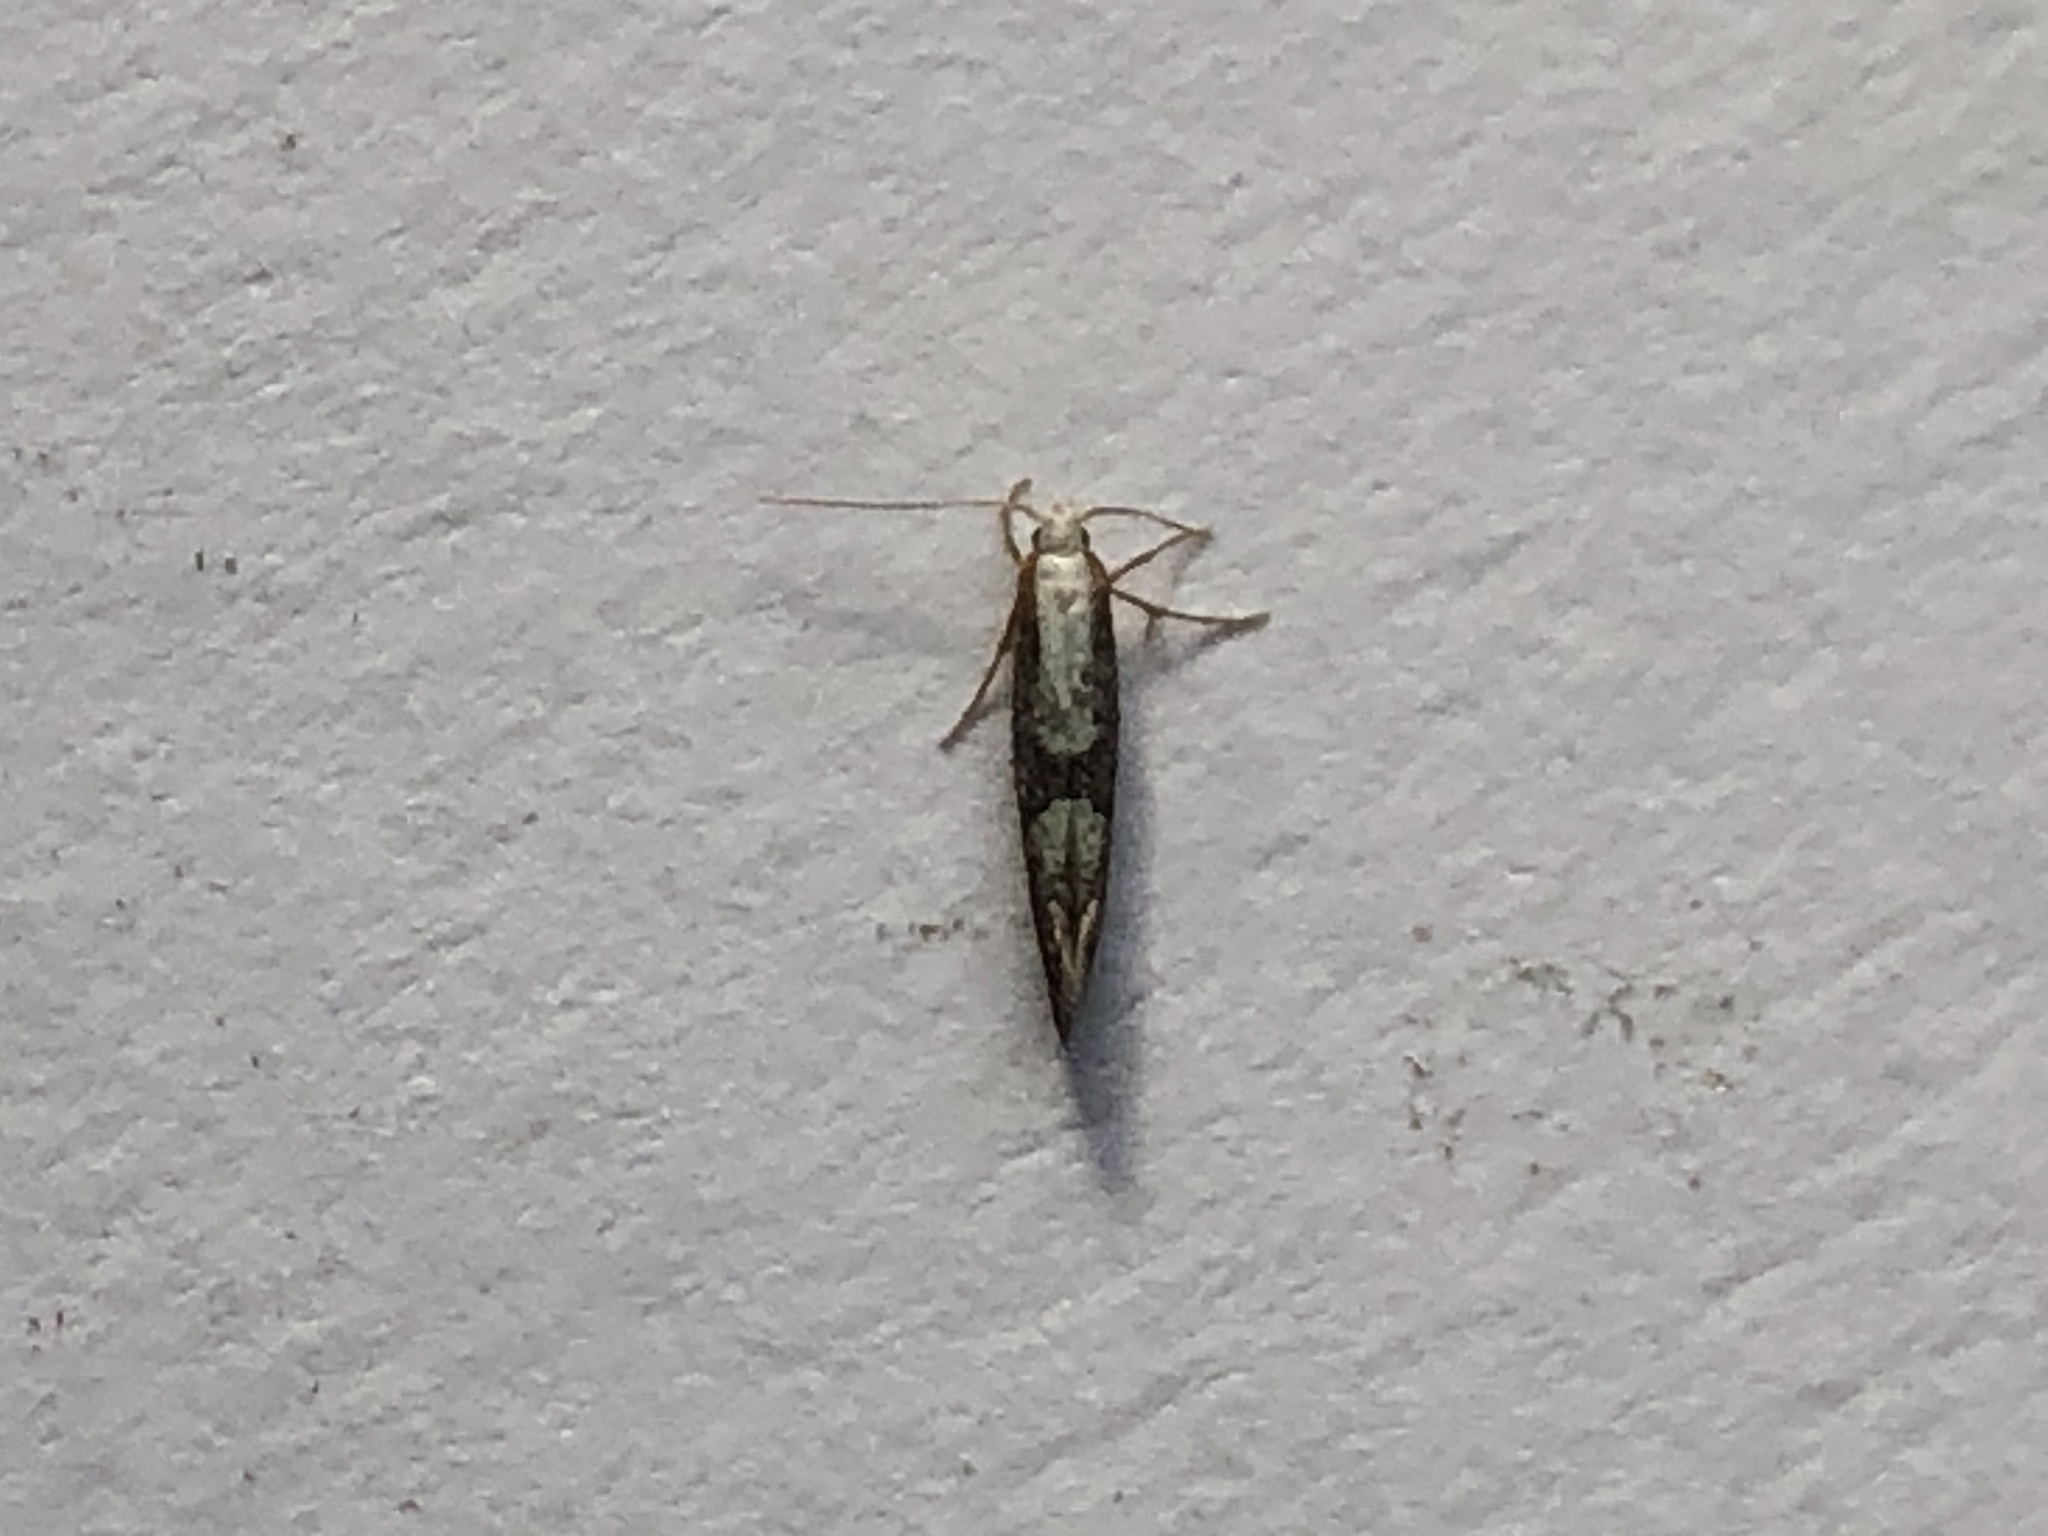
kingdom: Animalia
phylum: Arthropoda
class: Insecta
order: Lepidoptera
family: Argyresthiidae
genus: Argyresthia
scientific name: Argyresthia spinosella
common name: Blackthorn argent
